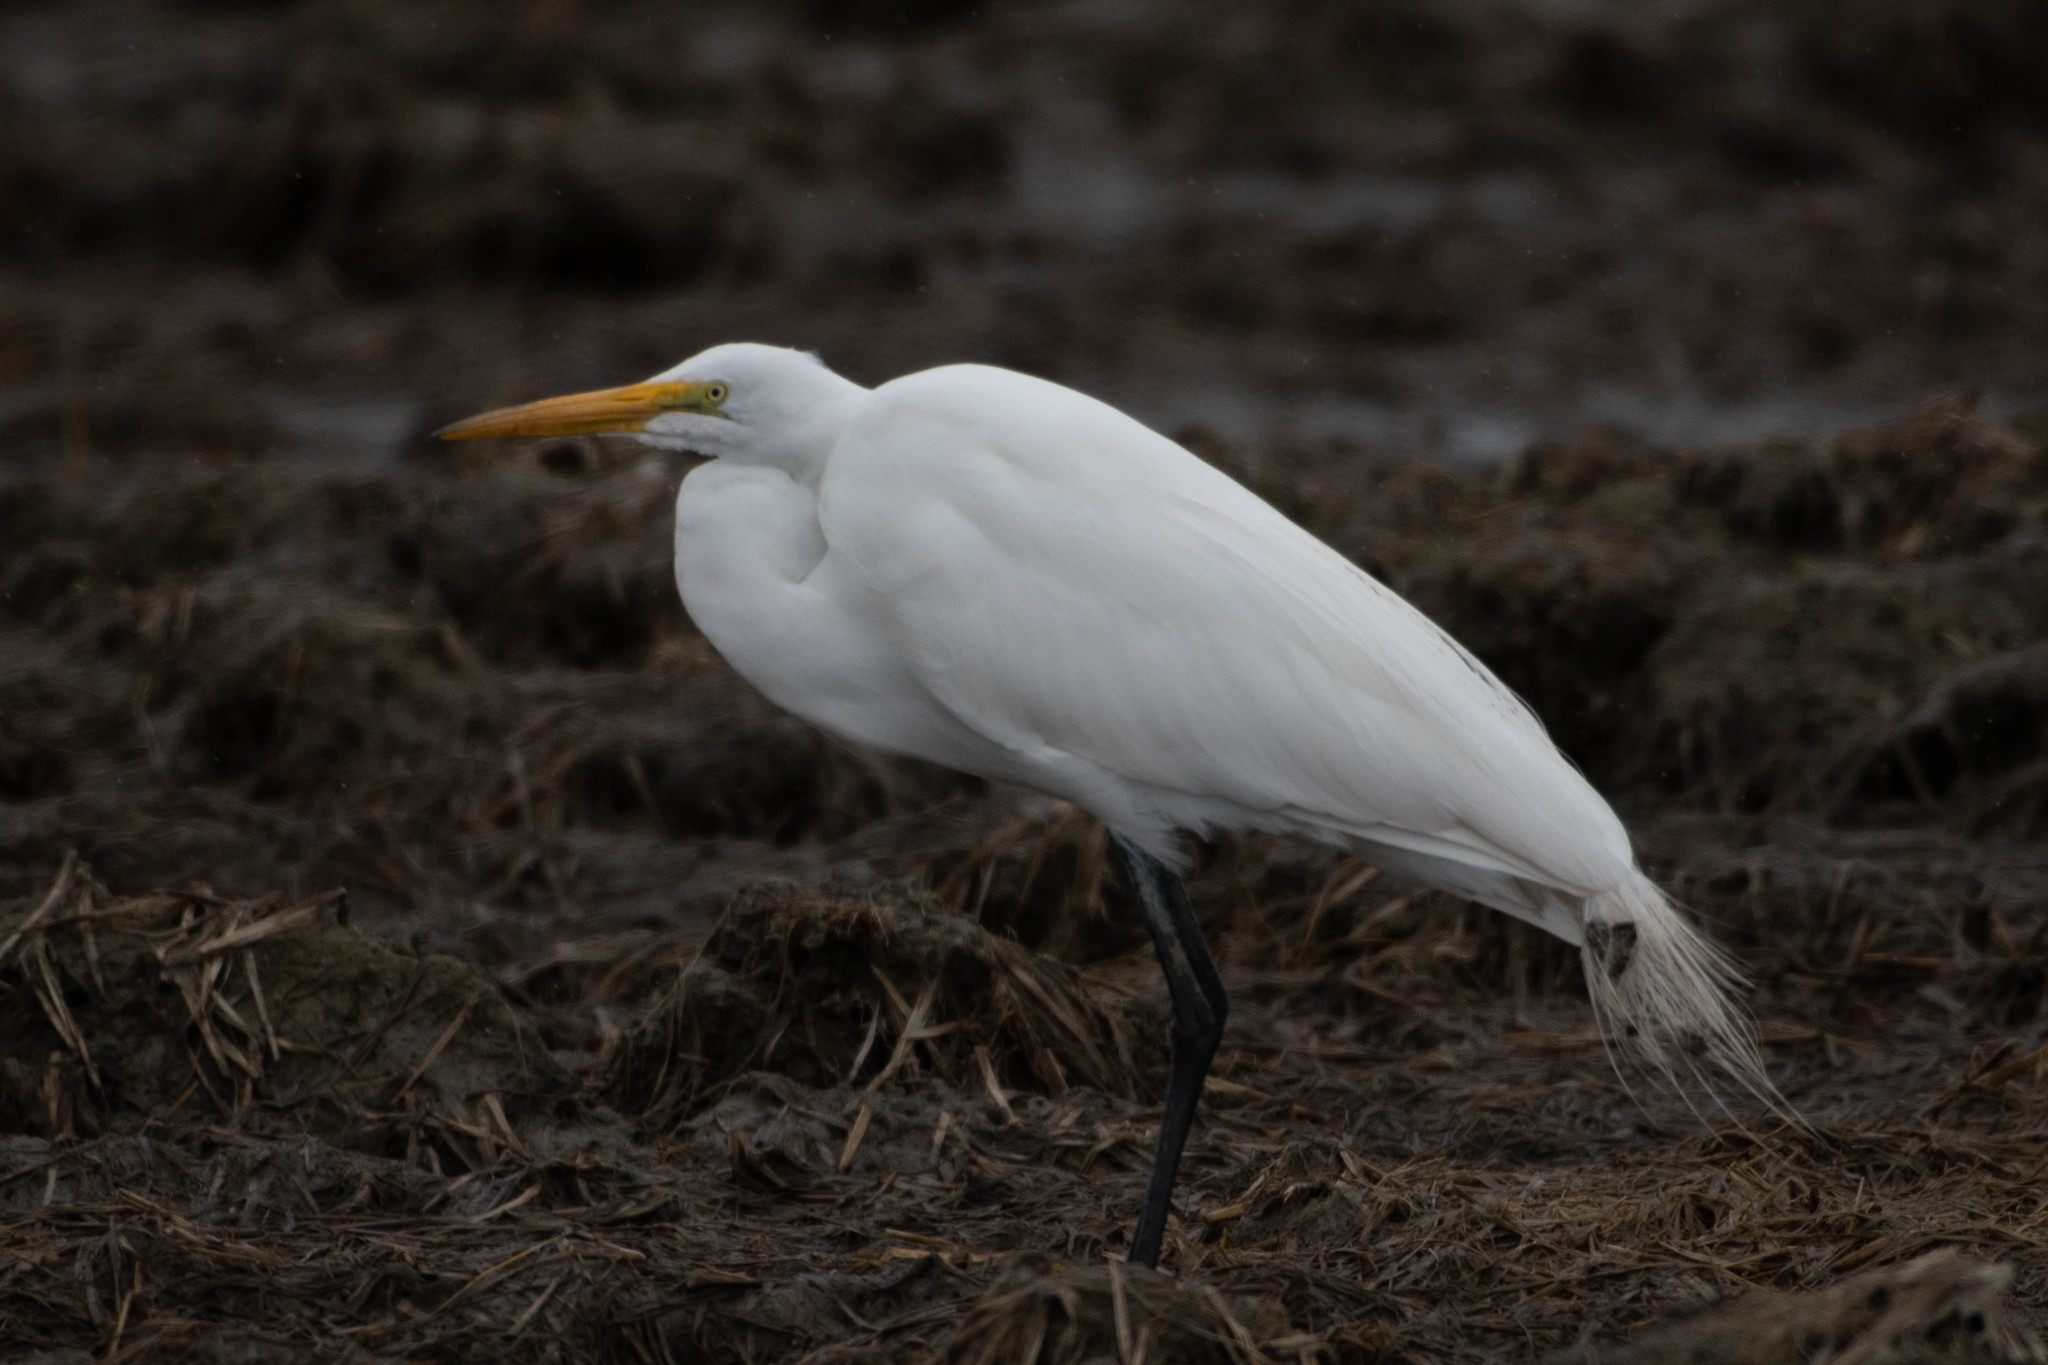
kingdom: Animalia
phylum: Chordata
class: Aves
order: Pelecaniformes
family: Ardeidae
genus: Ardea
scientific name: Ardea alba
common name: Great egret
